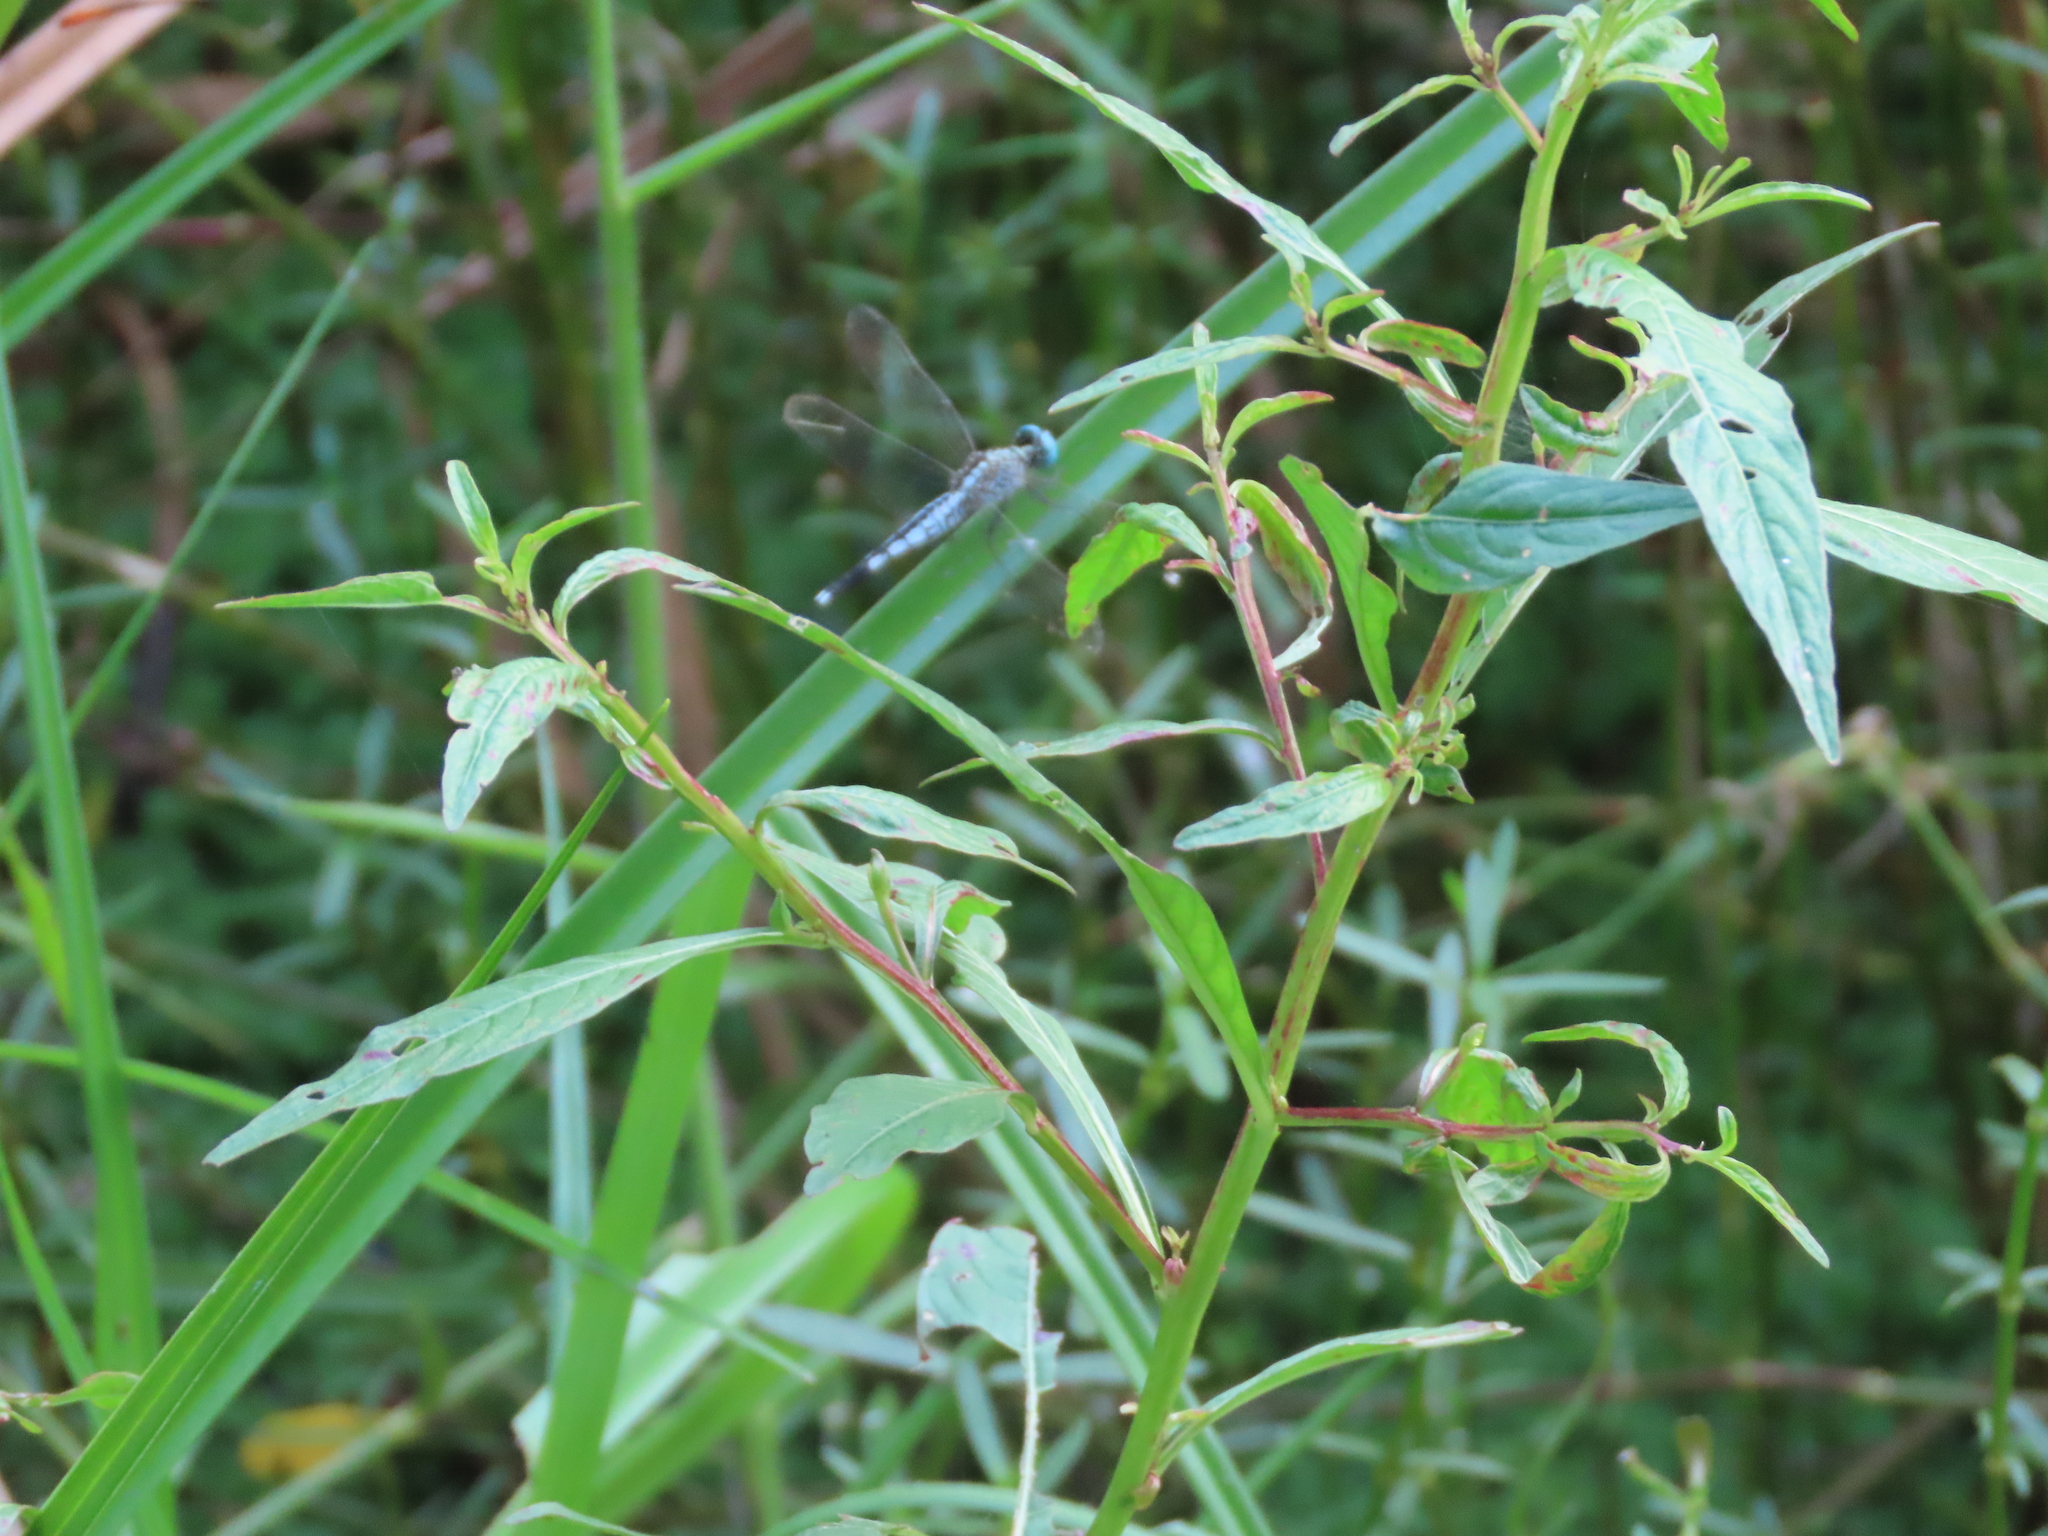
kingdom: Animalia
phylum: Arthropoda
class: Insecta
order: Odonata
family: Libellulidae
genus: Acisoma
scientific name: Acisoma panorpoides
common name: Asian pintail
